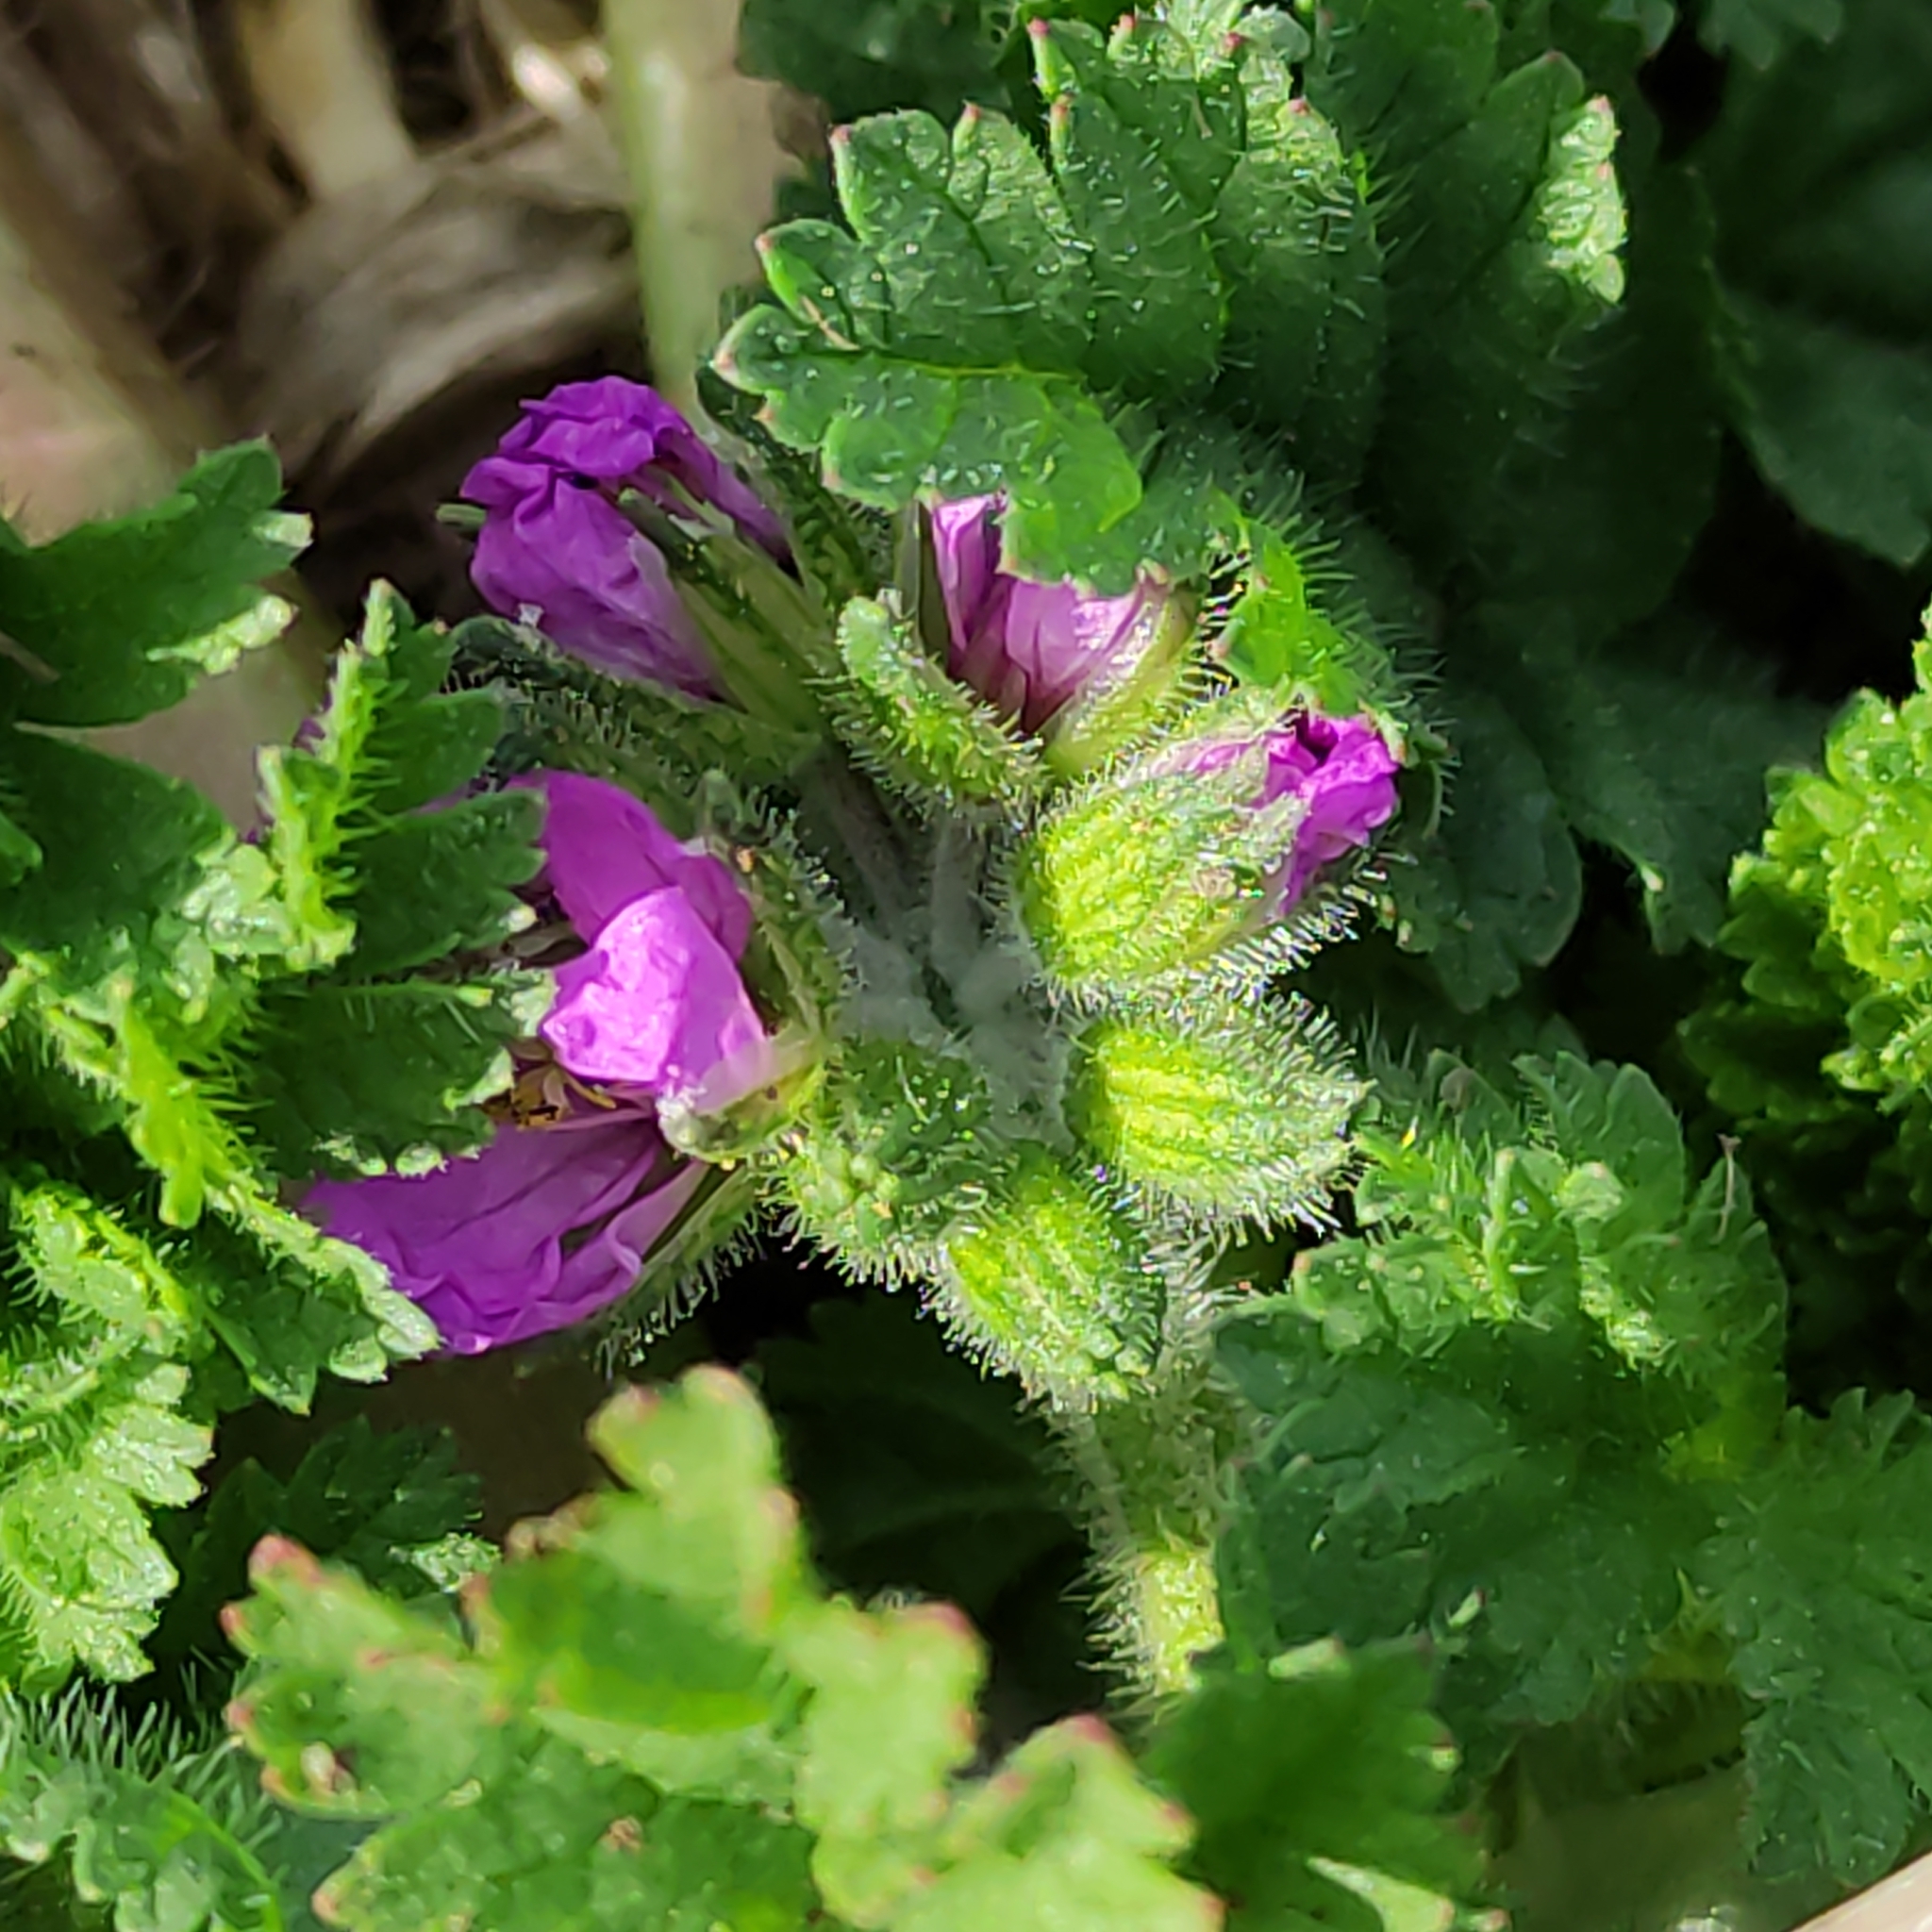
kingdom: Plantae
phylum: Tracheophyta
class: Magnoliopsida
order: Geraniales
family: Geraniaceae
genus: Erodium
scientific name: Erodium moschatum
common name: Musk stork's-bill
